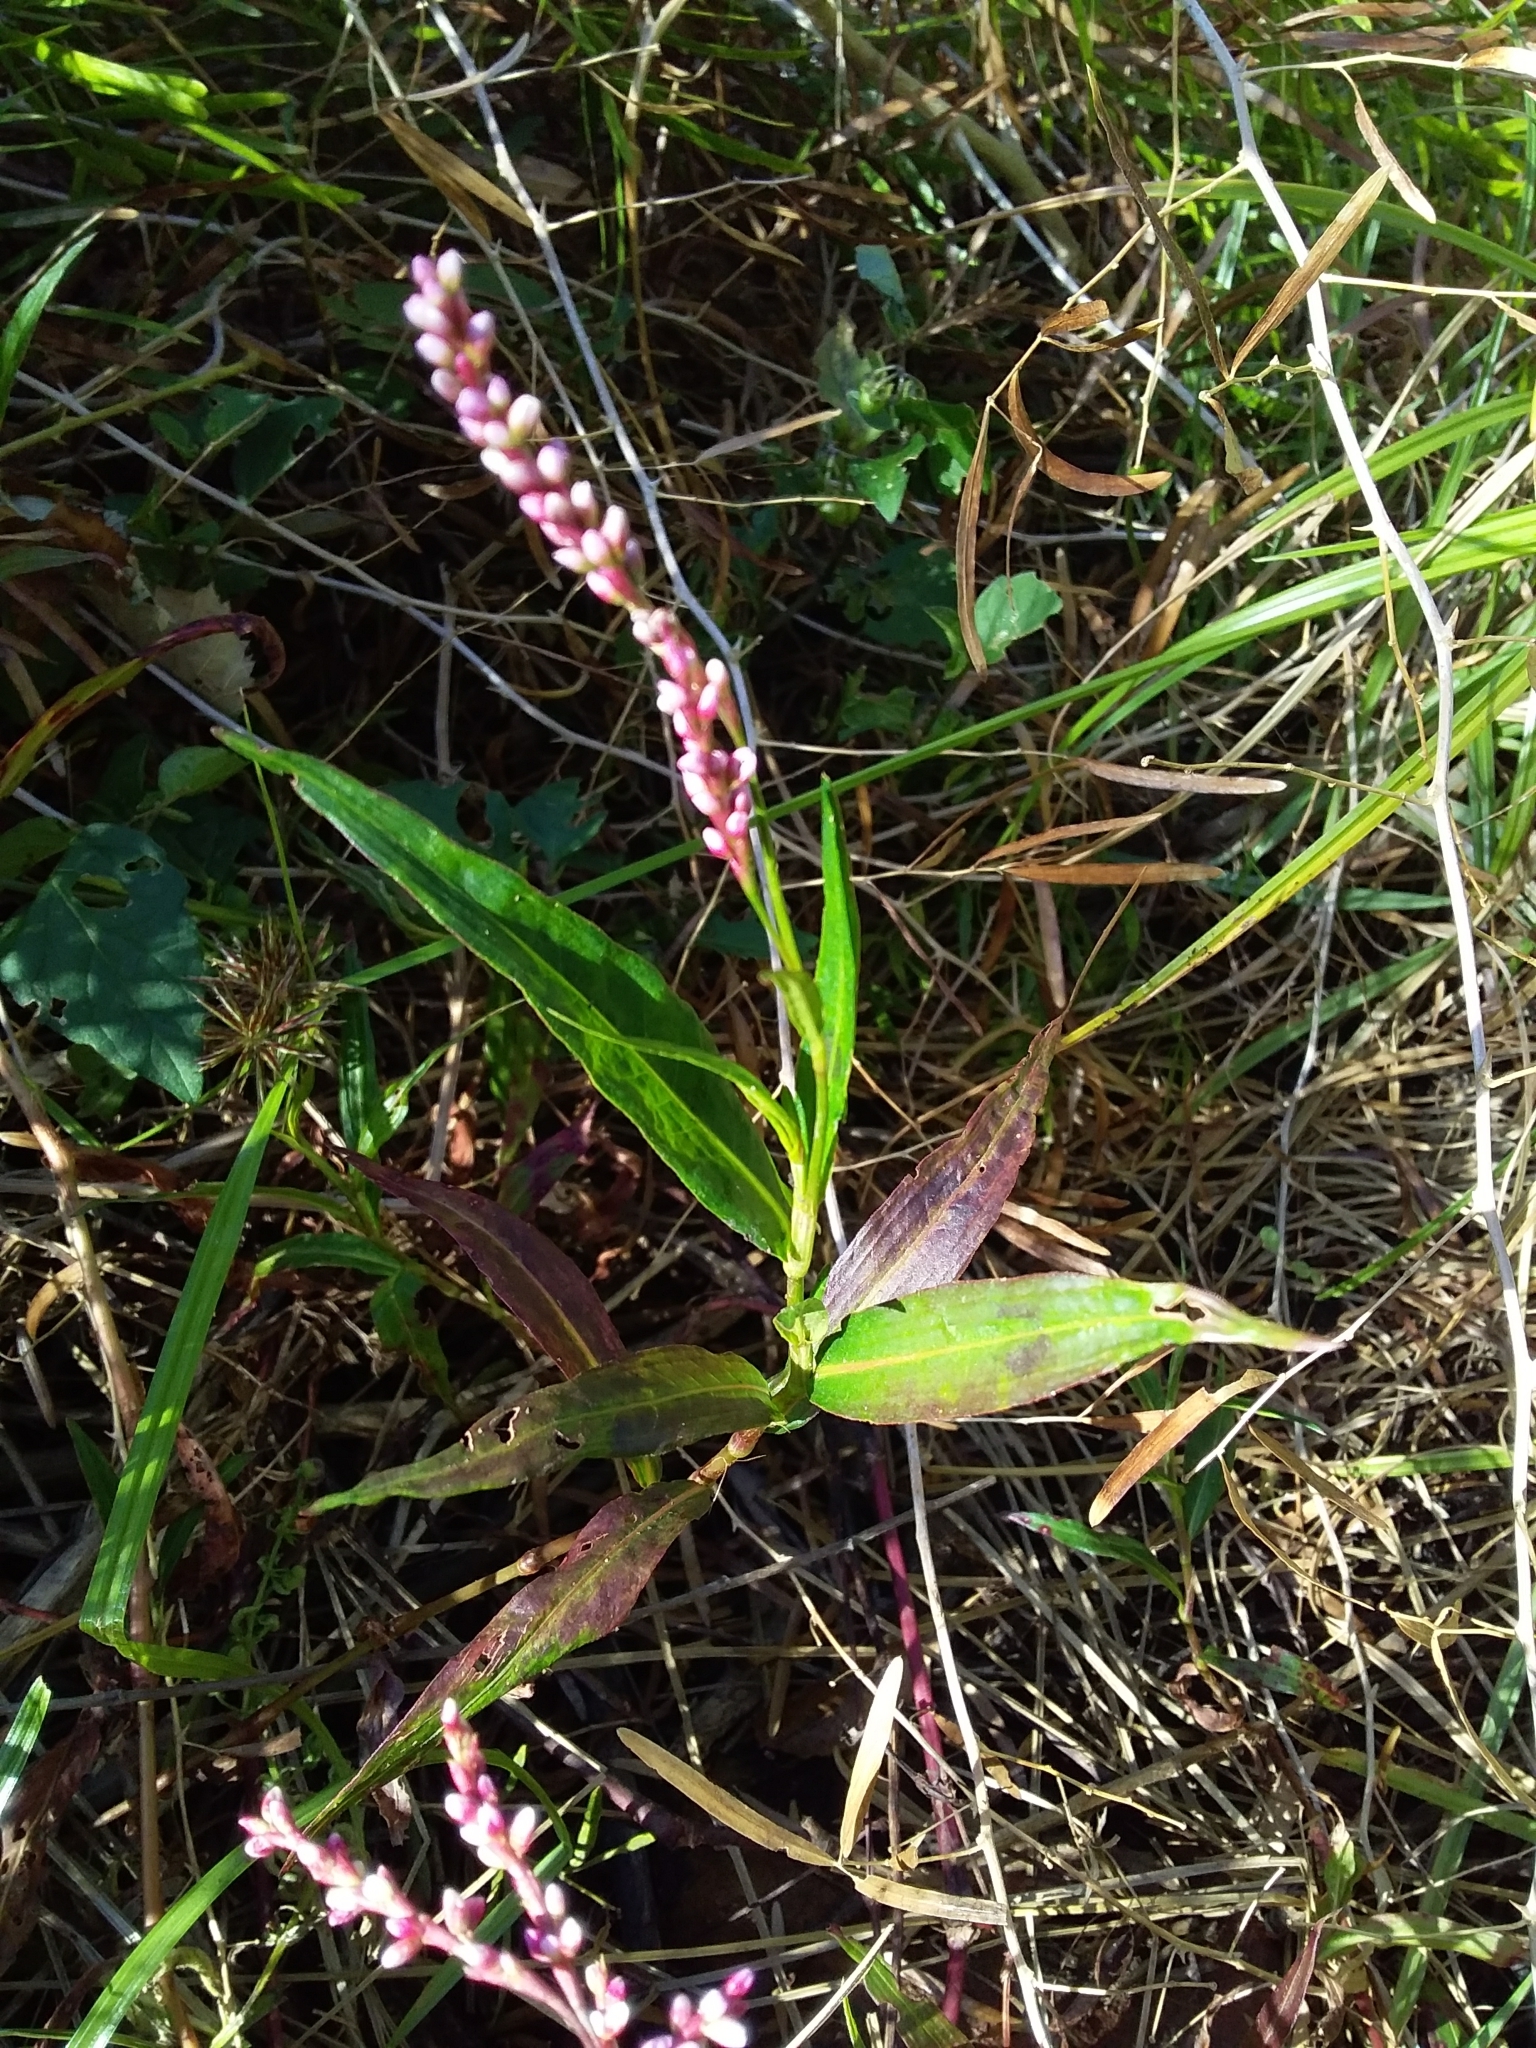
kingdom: Plantae
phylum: Tracheophyta
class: Magnoliopsida
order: Caryophyllales
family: Polygonaceae
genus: Persicaria
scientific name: Persicaria decipiens
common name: Willow-weed
